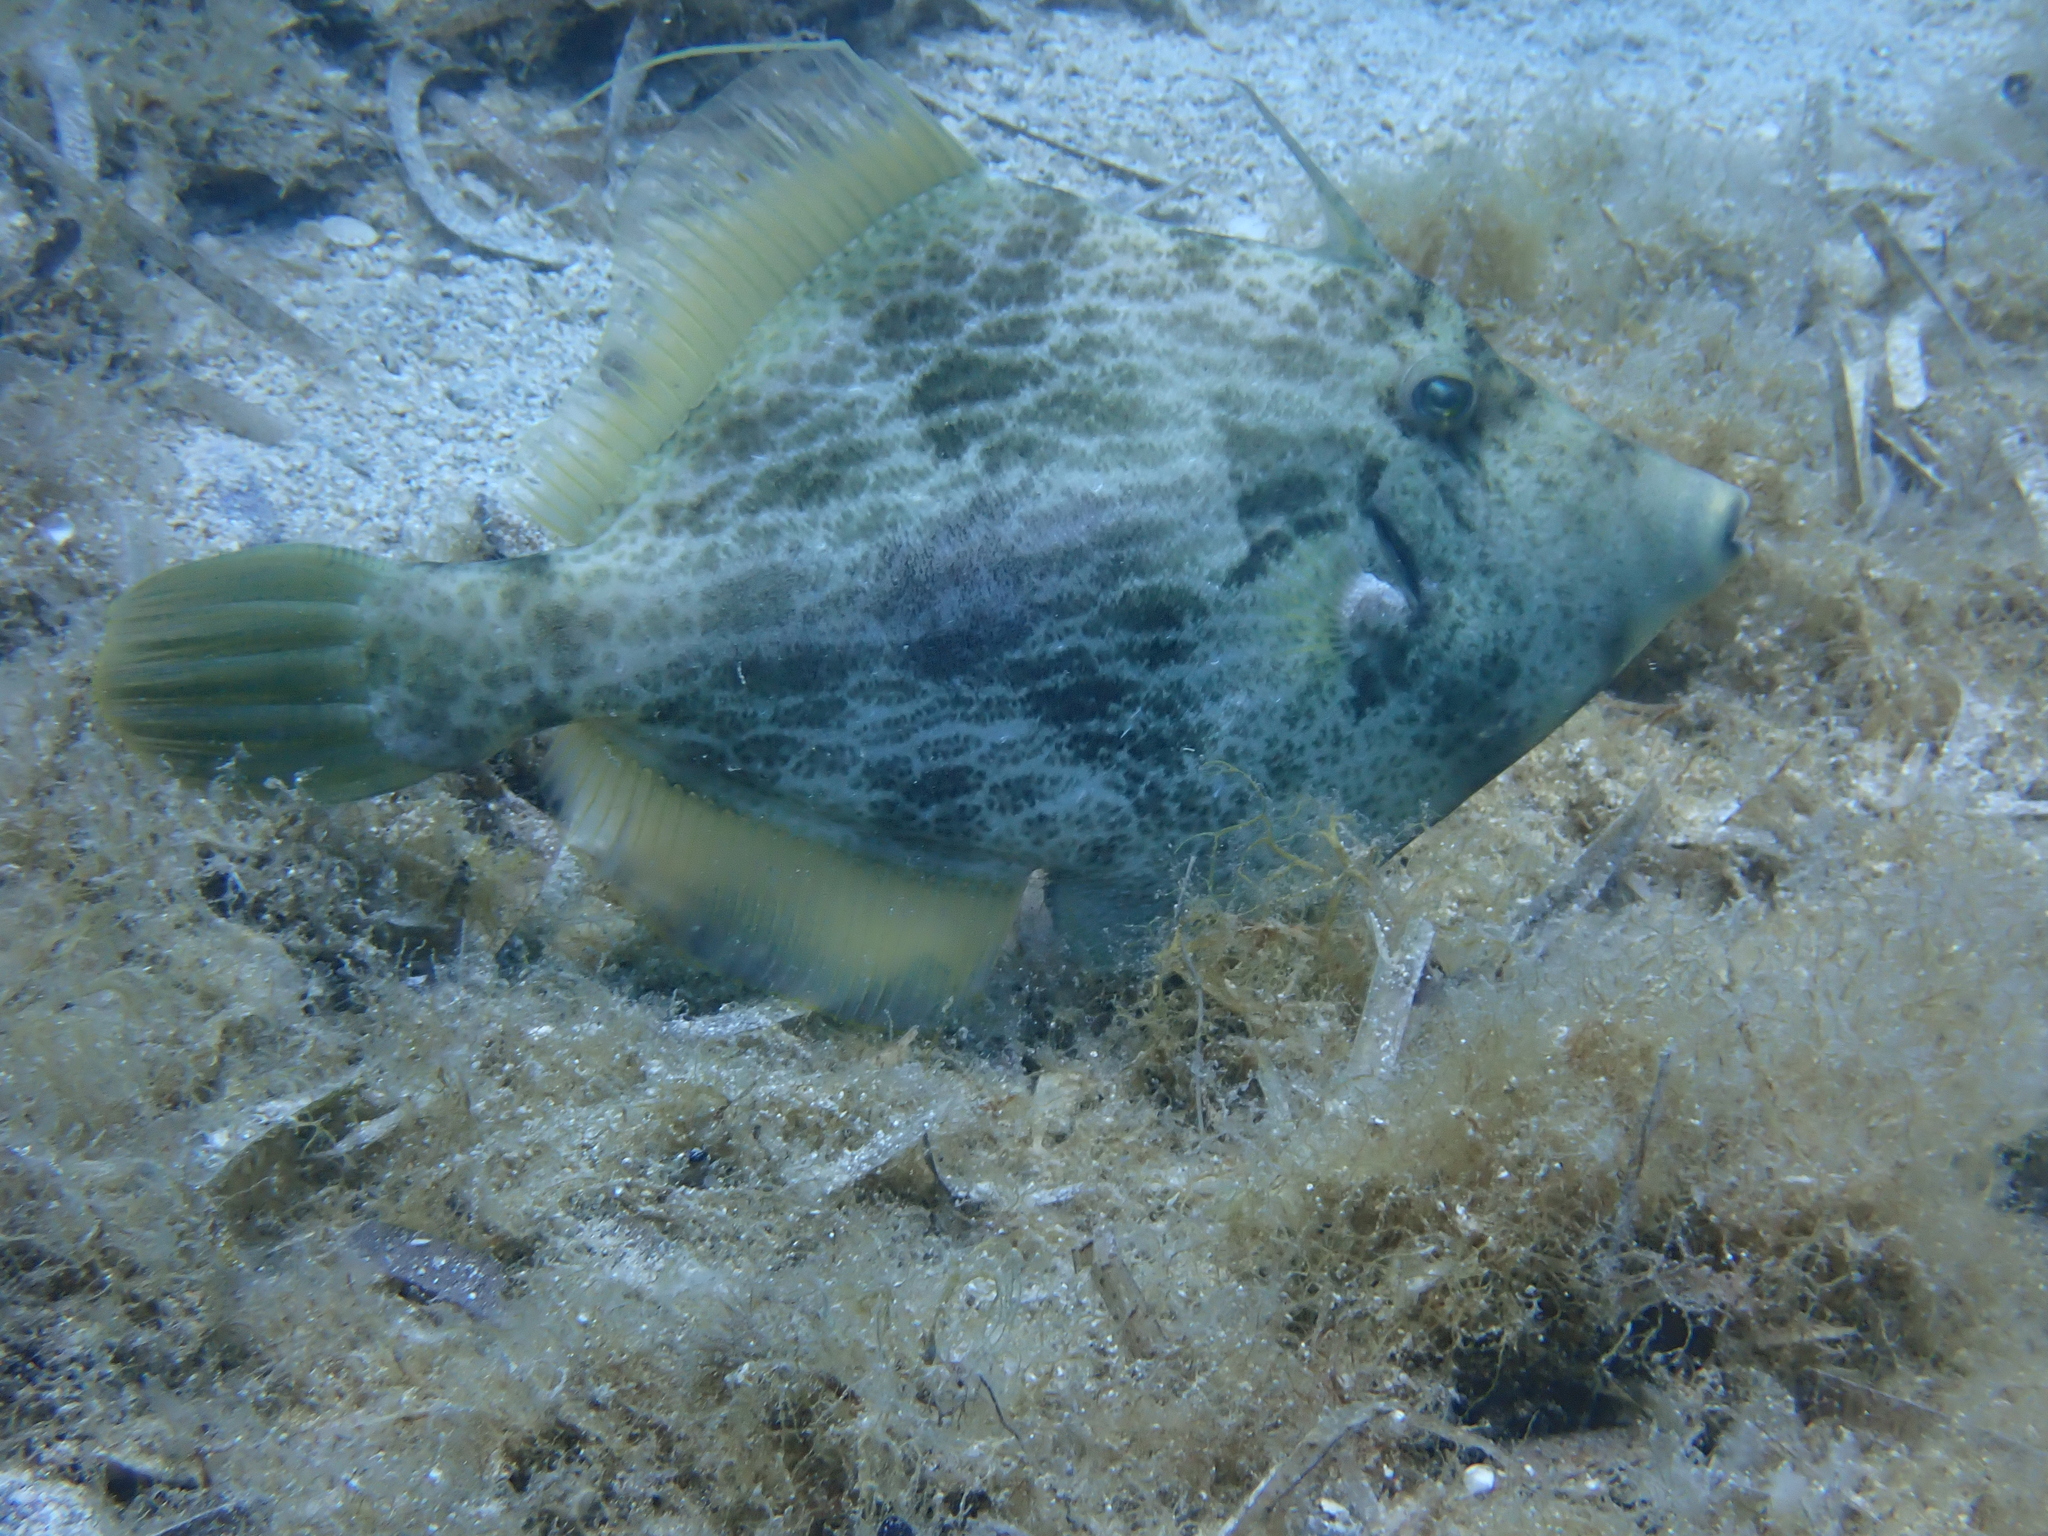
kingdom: Animalia
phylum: Chordata
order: Tetraodontiformes
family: Monacanthidae
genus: Stephanolepis
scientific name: Stephanolepis diaspros
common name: Reticulated leatherjacket
